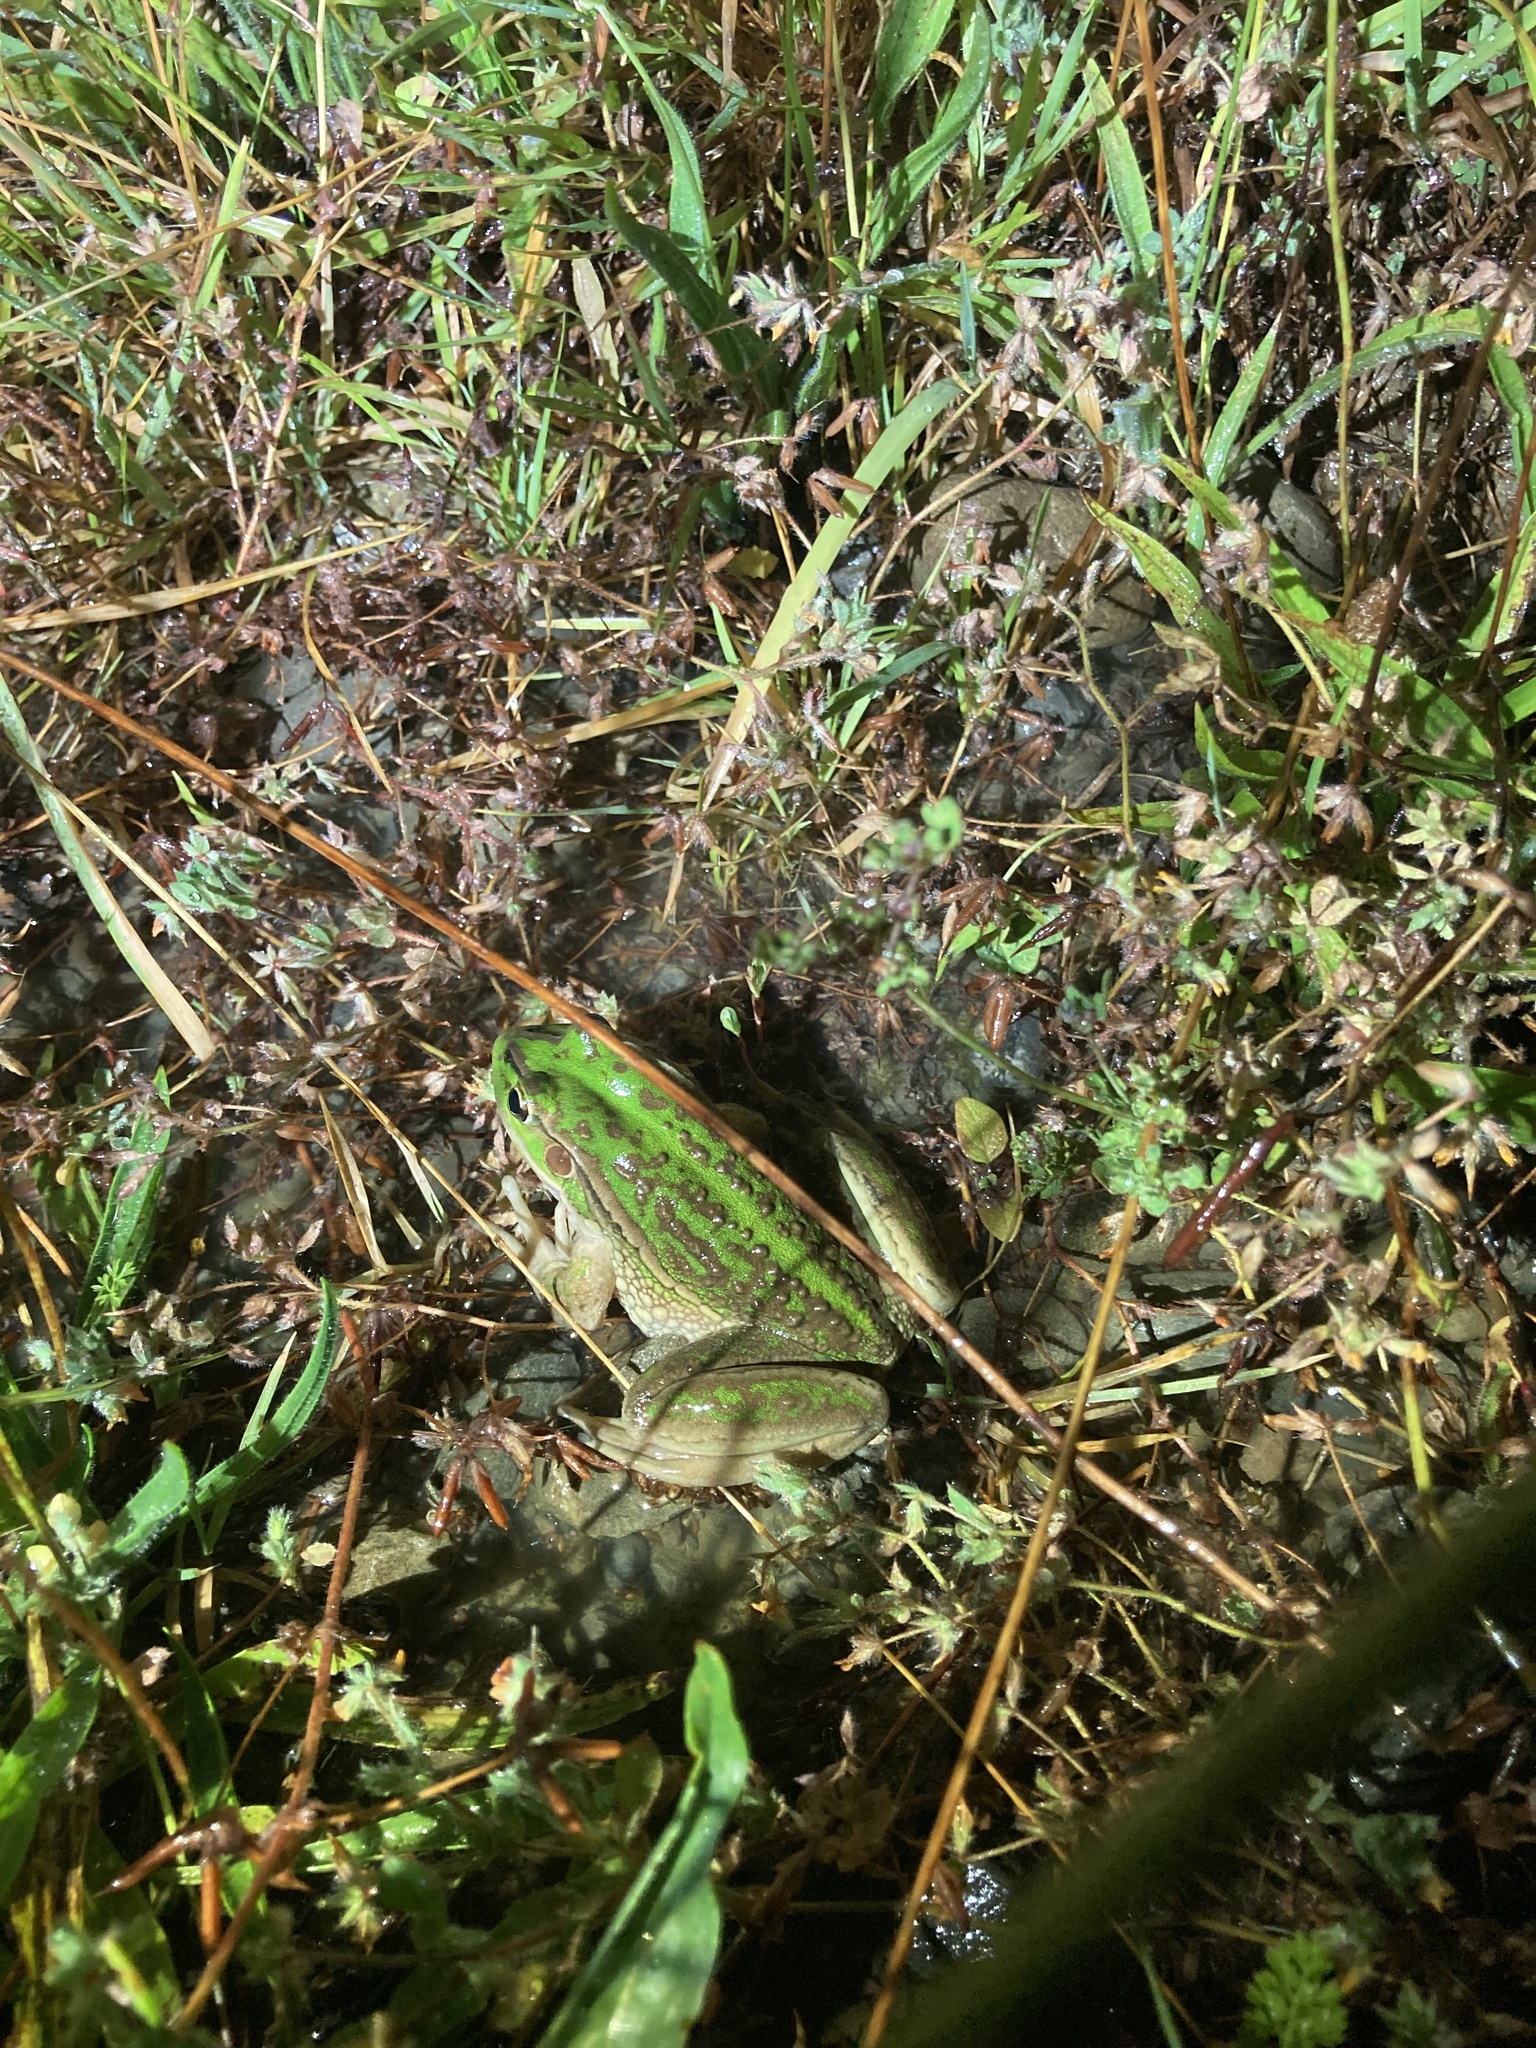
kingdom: Animalia
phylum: Chordata
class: Amphibia
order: Anura
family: Pelodryadidae
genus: Ranoidea
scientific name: Ranoidea raniformis
